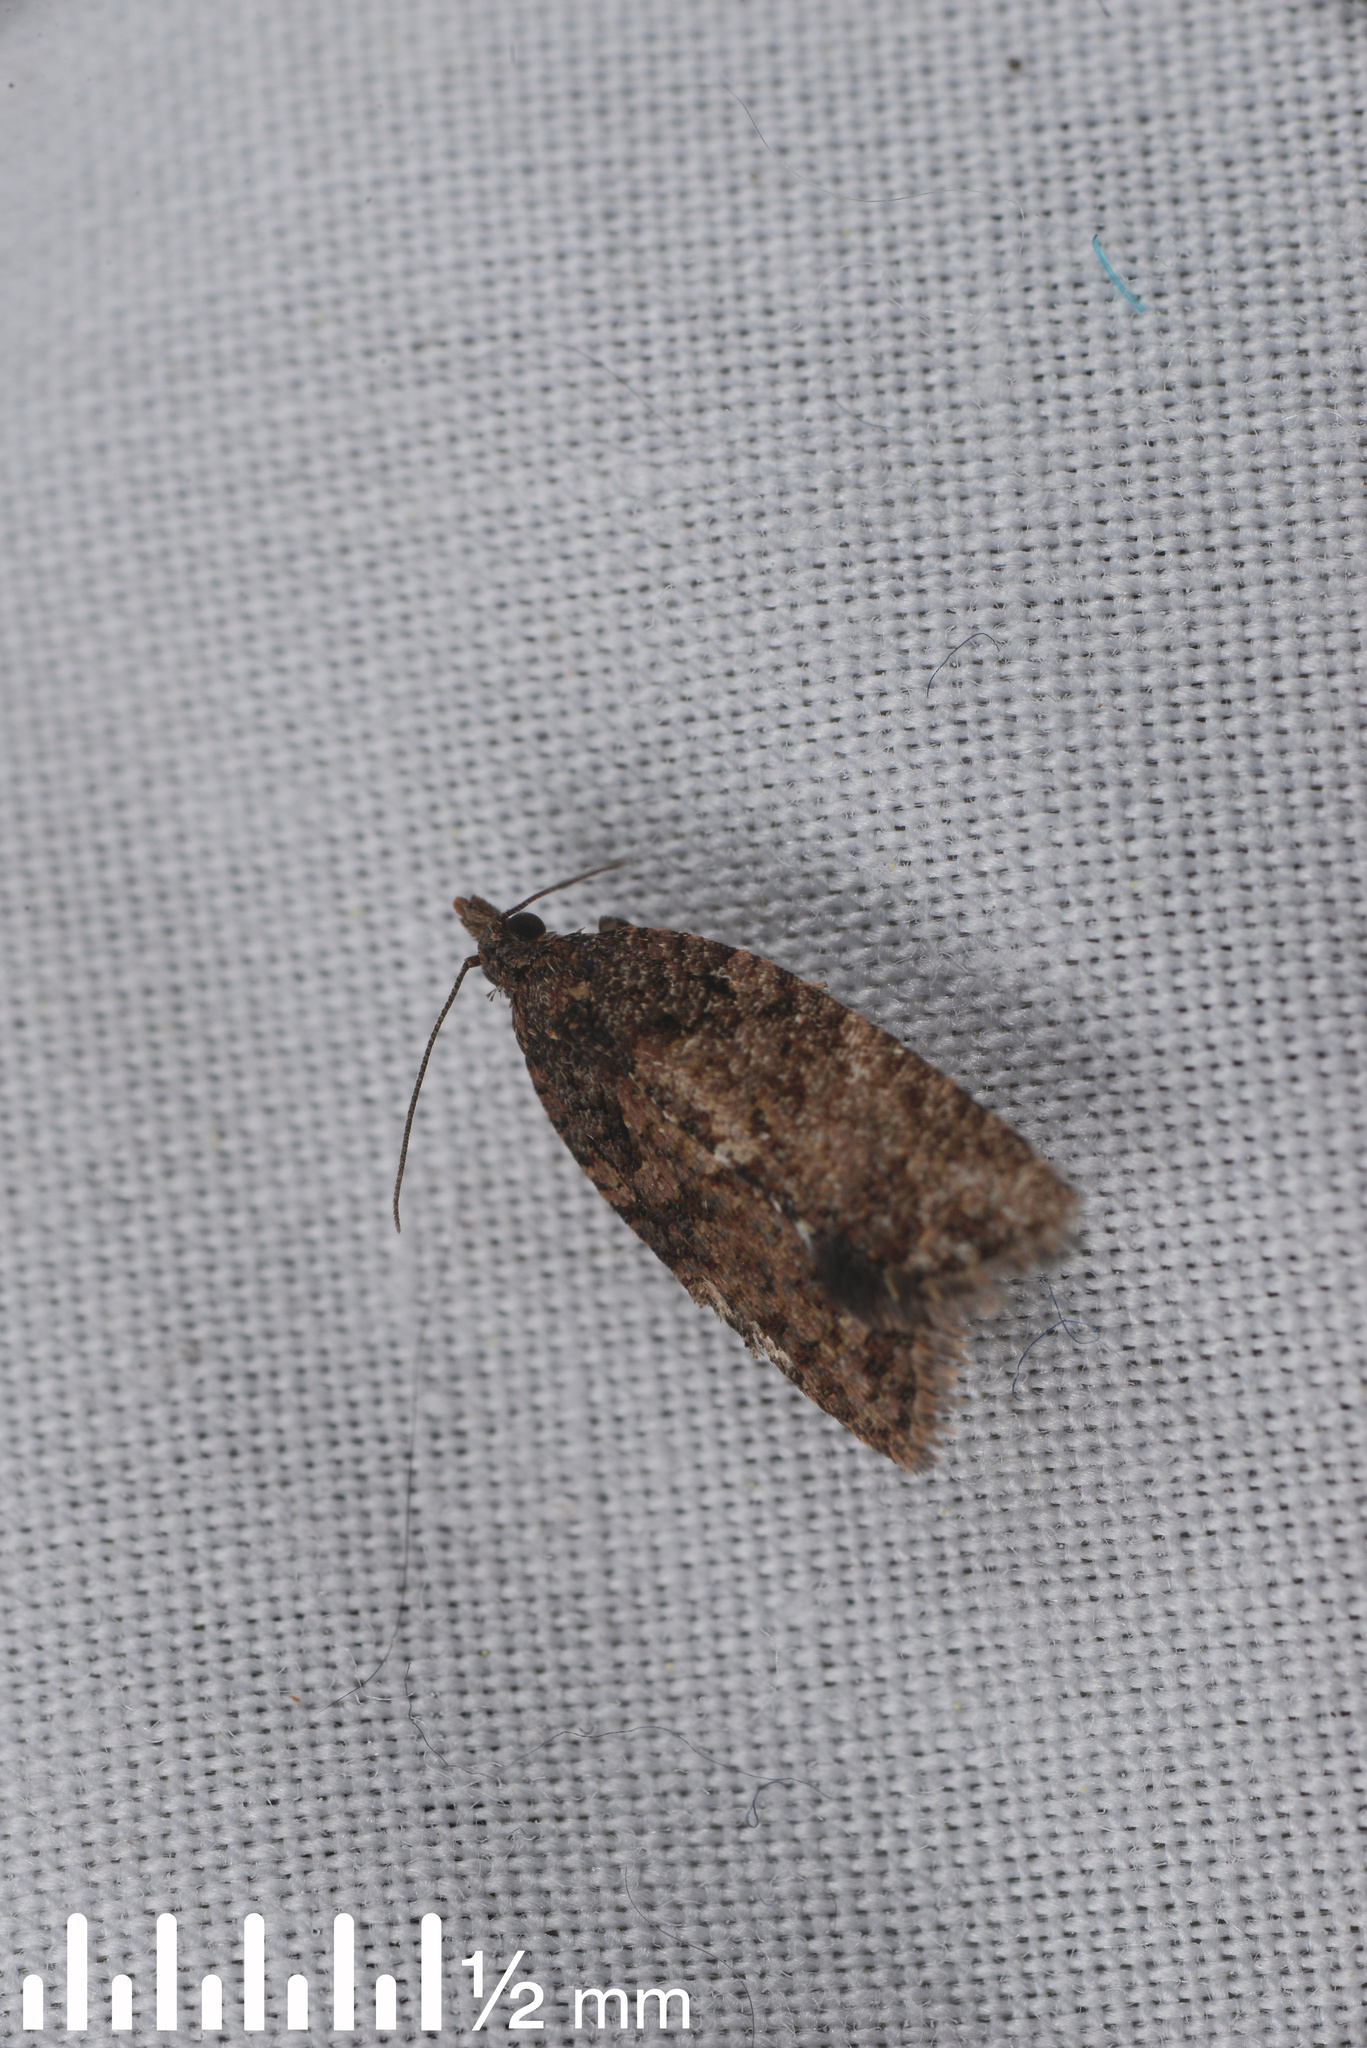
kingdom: Animalia
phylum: Arthropoda
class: Insecta
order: Lepidoptera
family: Tortricidae
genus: Capua
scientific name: Capua intractana
